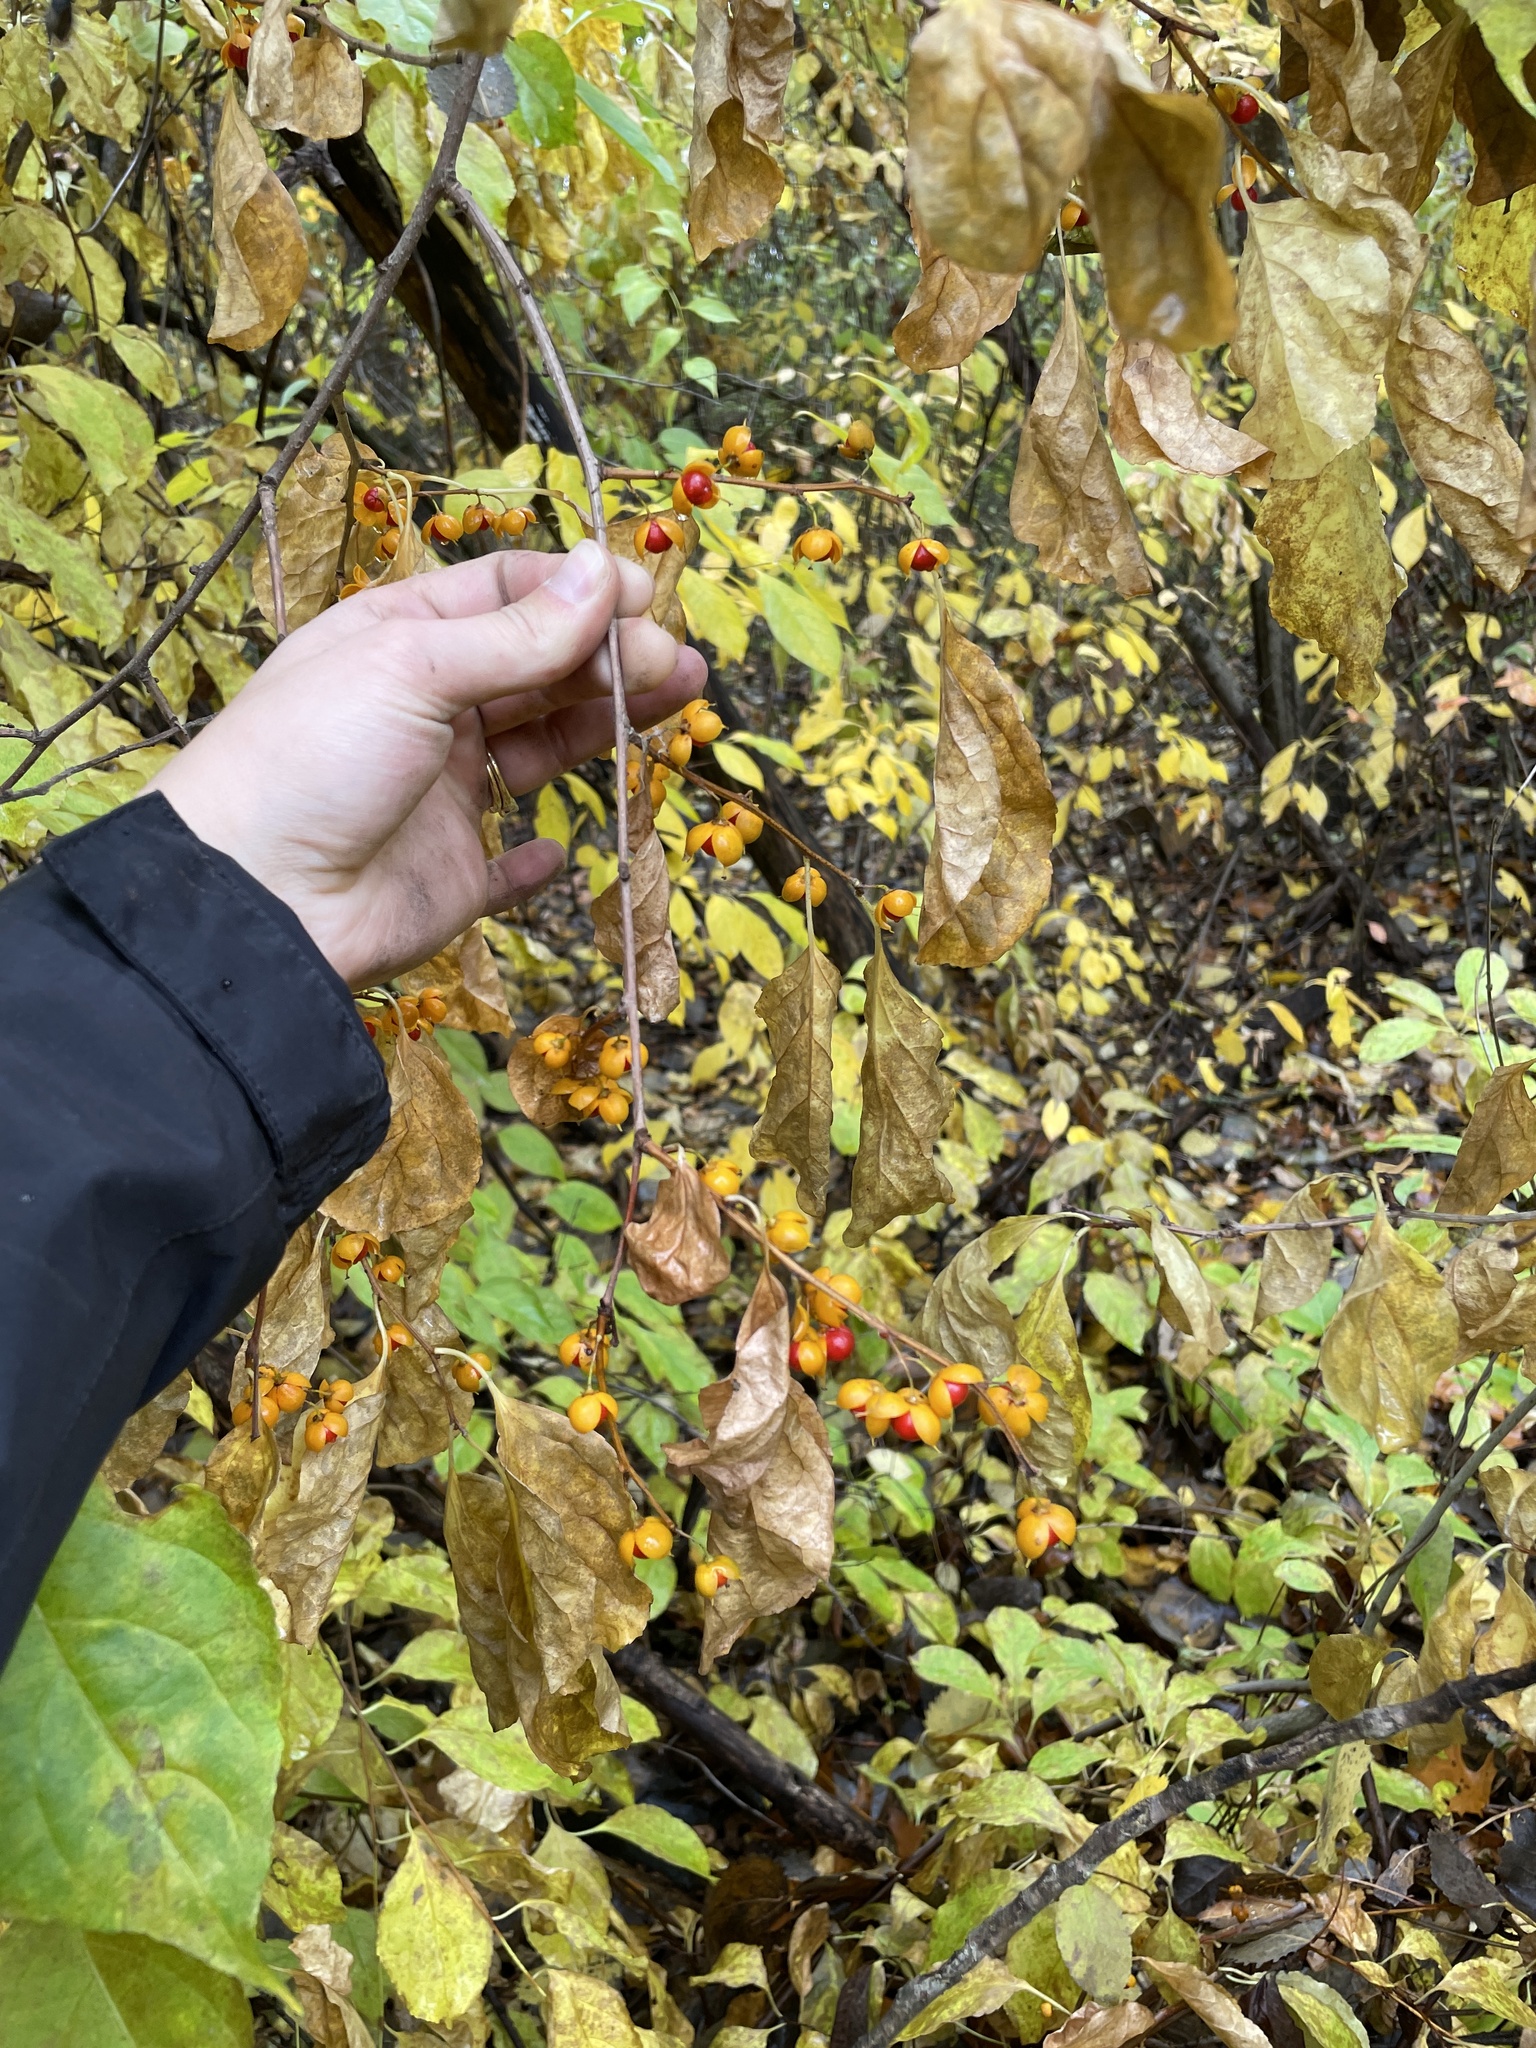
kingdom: Plantae
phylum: Tracheophyta
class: Magnoliopsida
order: Celastrales
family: Celastraceae
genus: Celastrus
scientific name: Celastrus orbiculatus
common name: Oriental bittersweet
